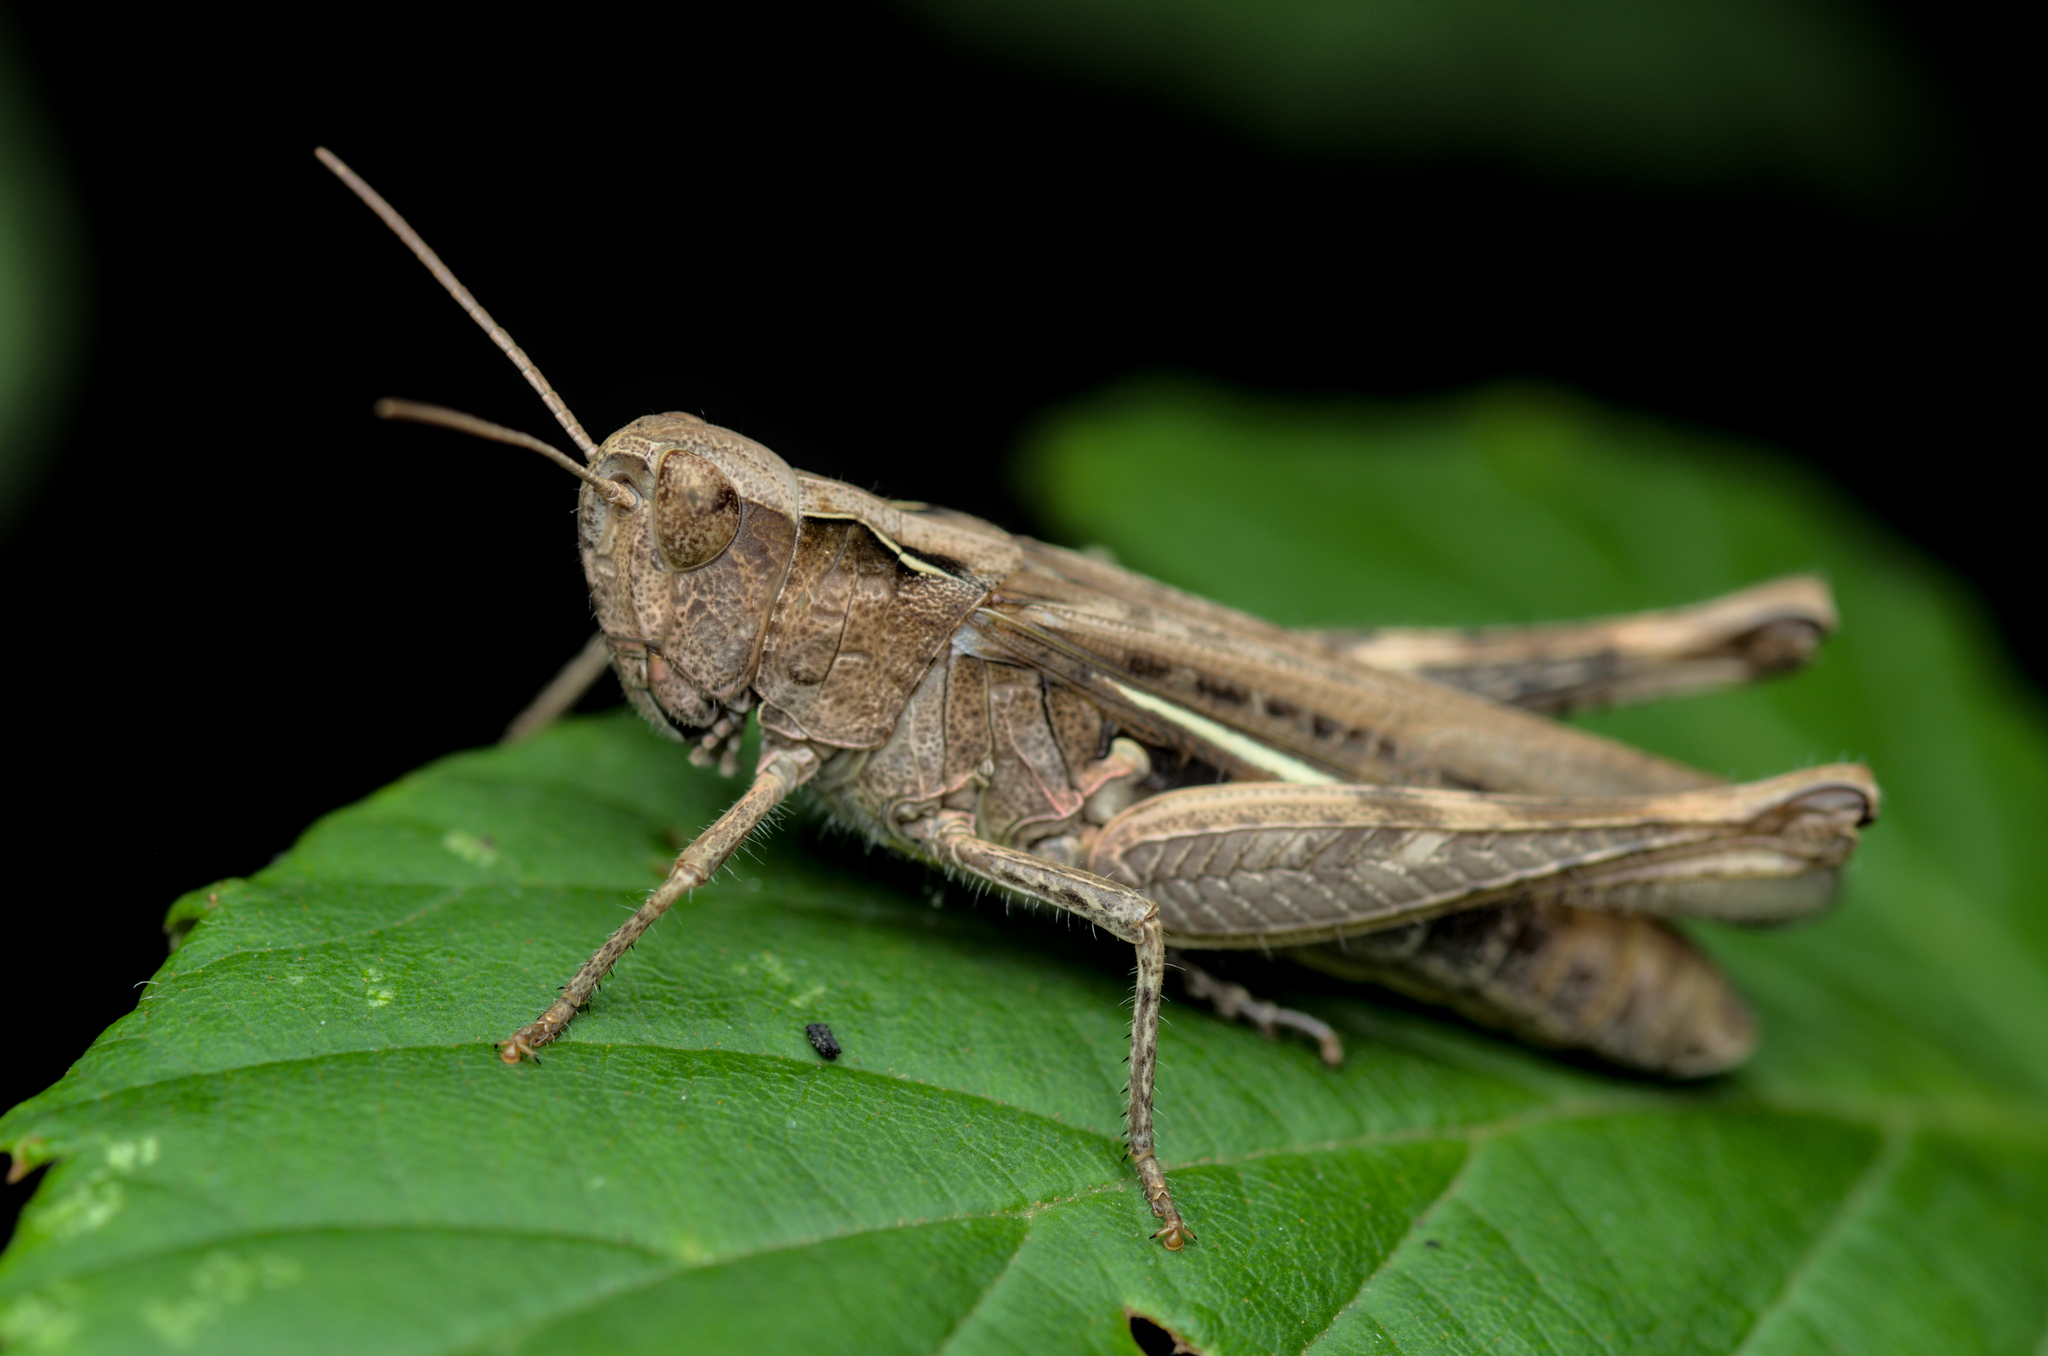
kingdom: Animalia
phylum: Arthropoda
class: Insecta
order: Orthoptera
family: Acrididae
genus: Chorthippus
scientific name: Chorthippus brunneus
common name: Field grasshopper
